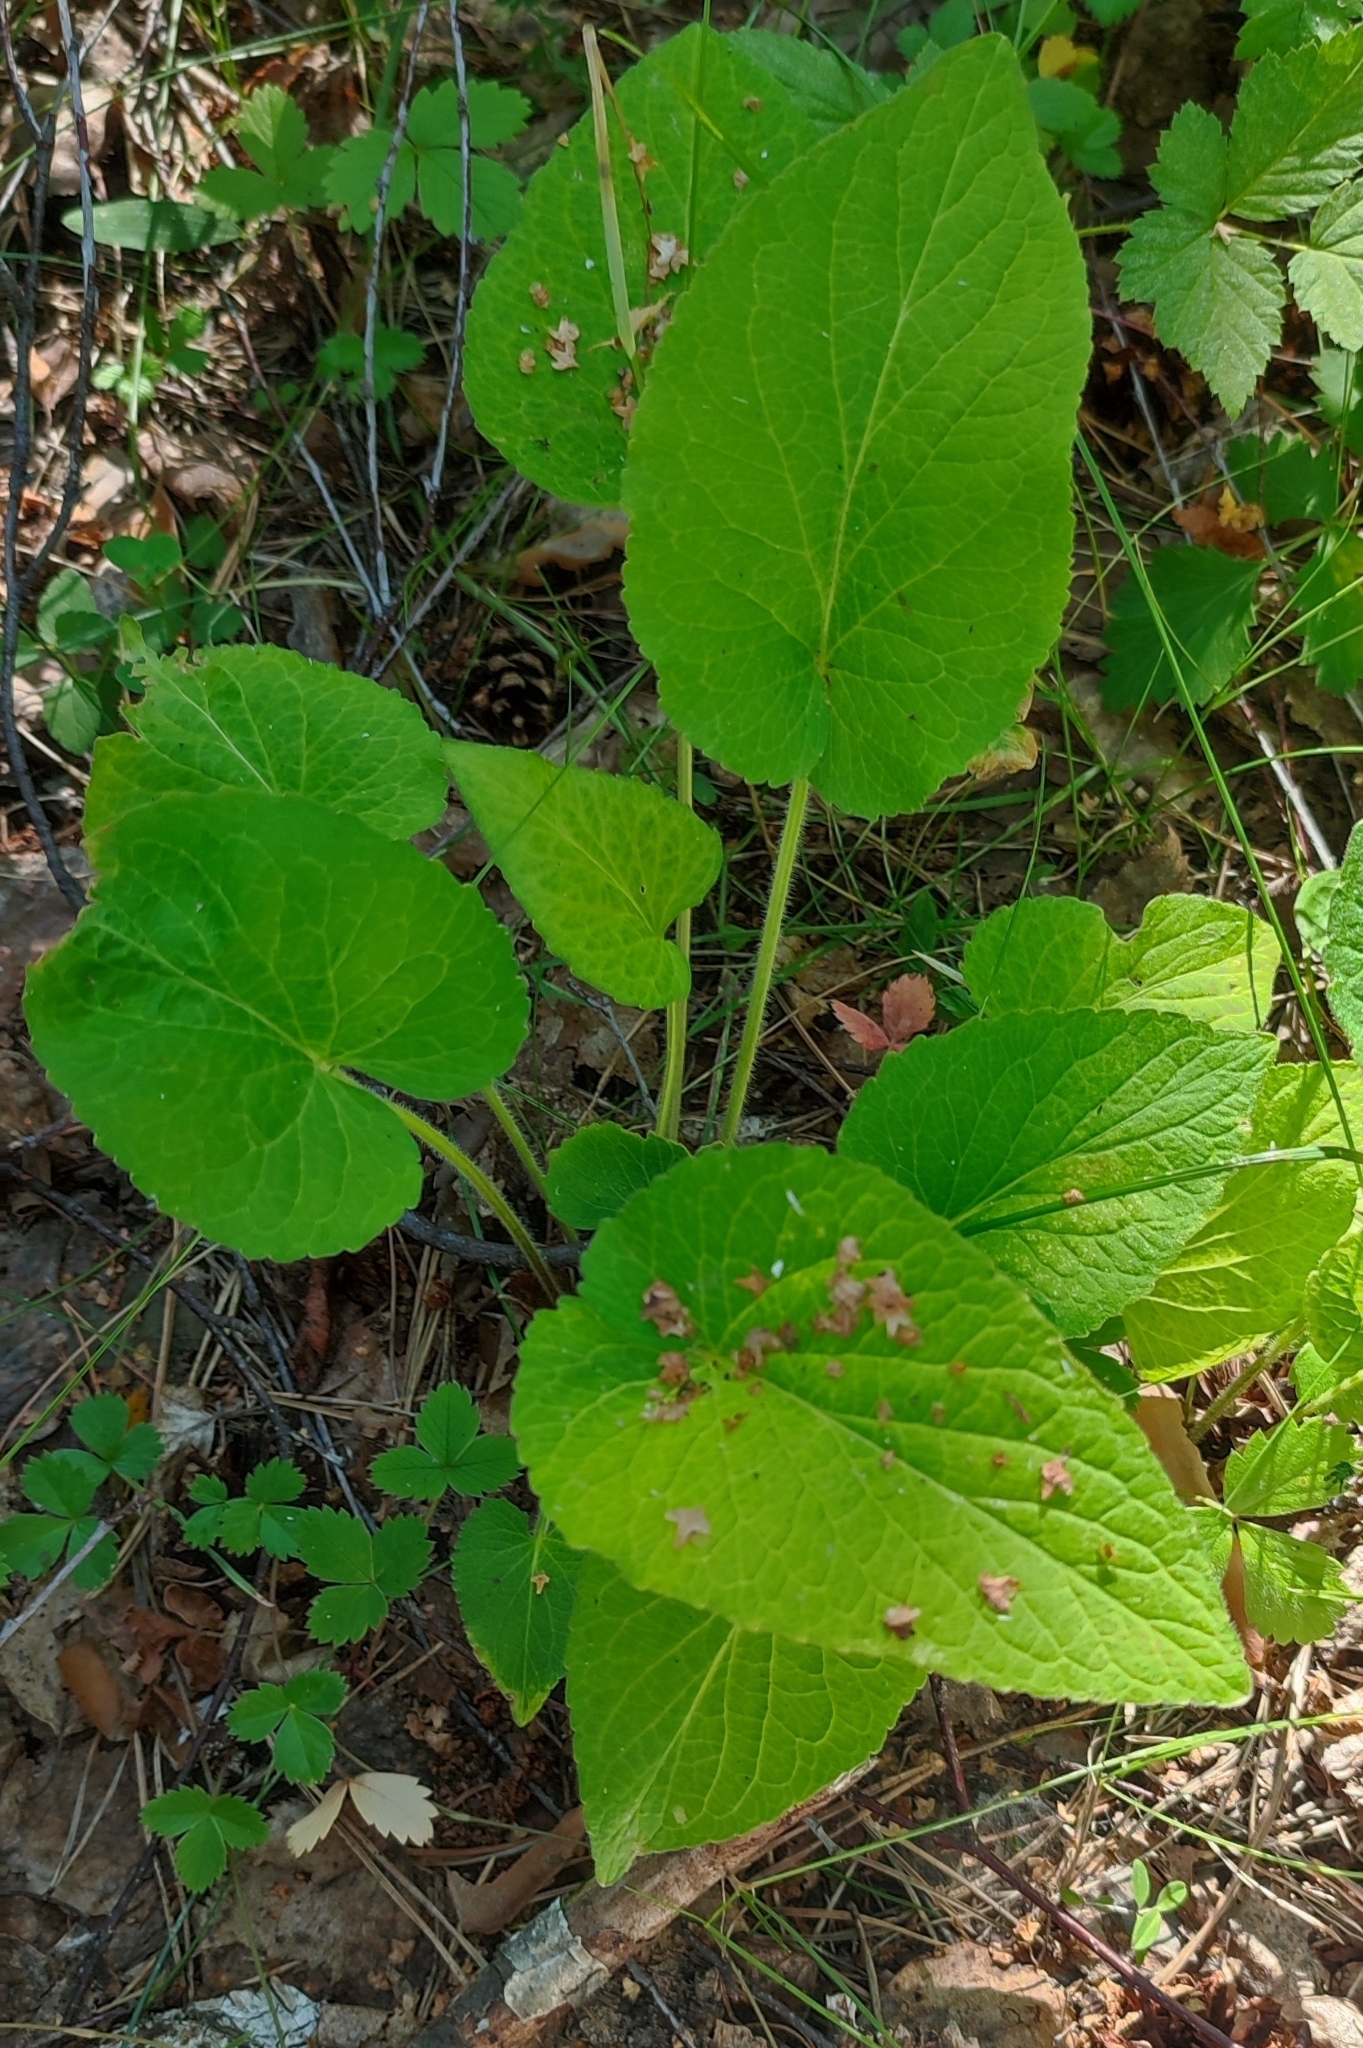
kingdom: Plantae
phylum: Tracheophyta
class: Magnoliopsida
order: Malpighiales
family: Violaceae
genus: Viola
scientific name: Viola hirta
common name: Hairy violet
